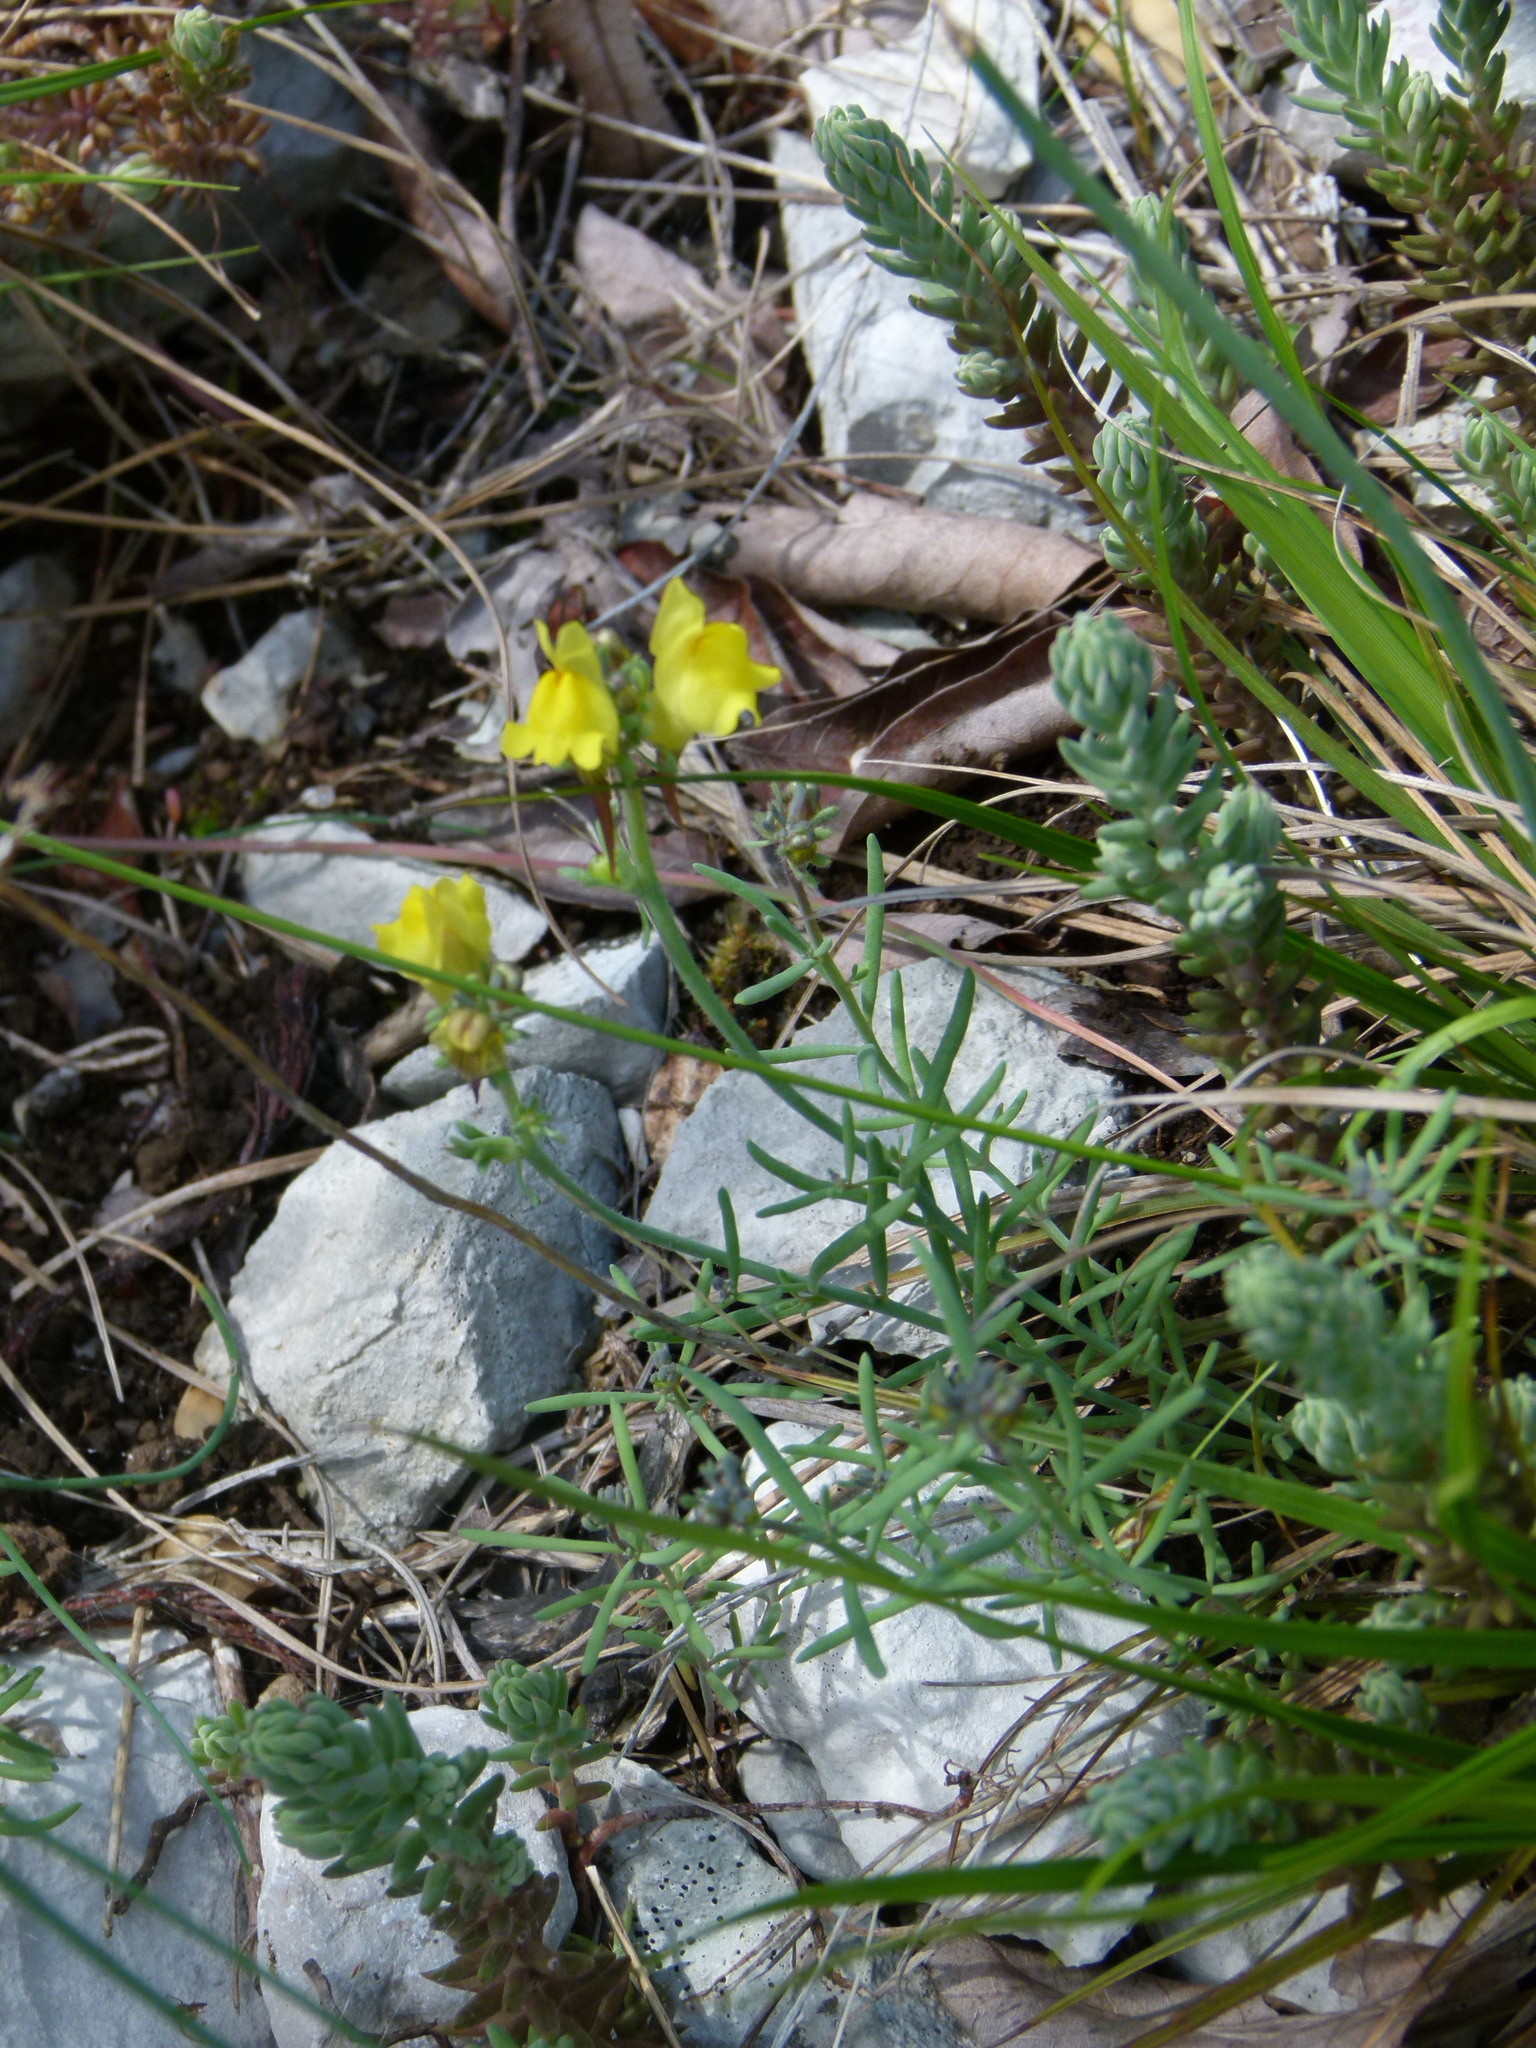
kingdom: Plantae
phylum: Tracheophyta
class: Magnoliopsida
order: Lamiales
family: Plantaginaceae
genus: Linaria
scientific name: Linaria supina
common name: Prostrate toadflax
